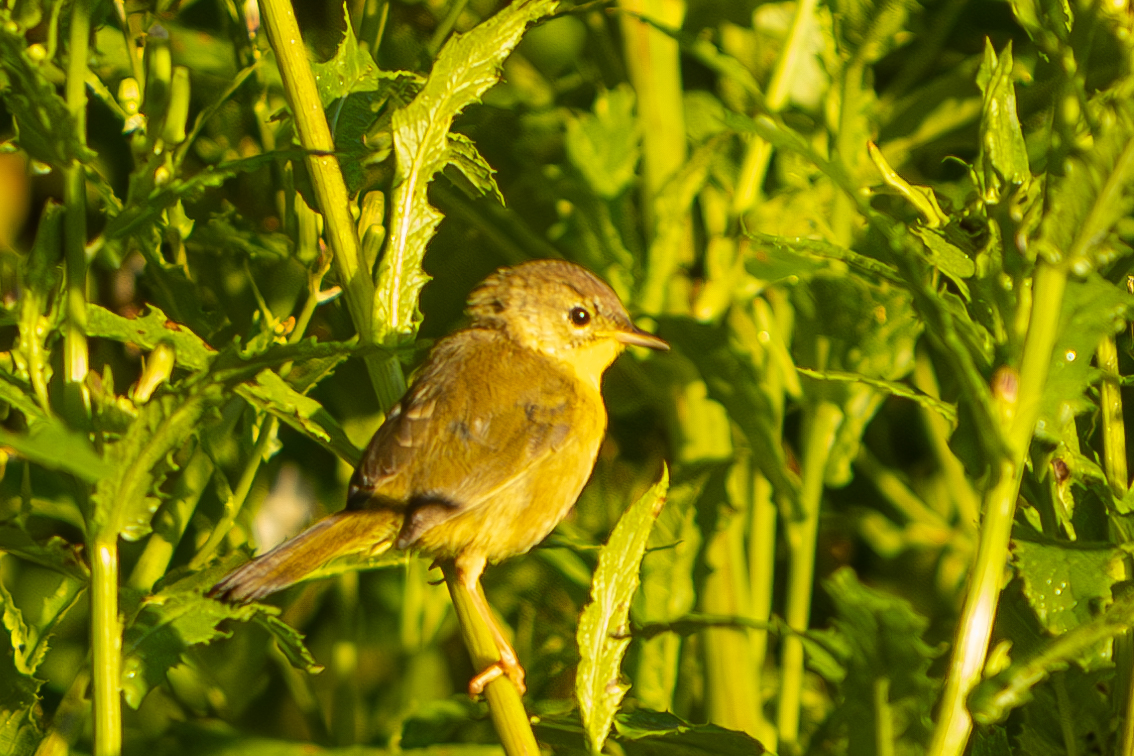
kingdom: Animalia
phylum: Chordata
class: Aves
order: Passeriformes
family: Parulidae
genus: Geothlypis
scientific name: Geothlypis trichas
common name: Common yellowthroat
